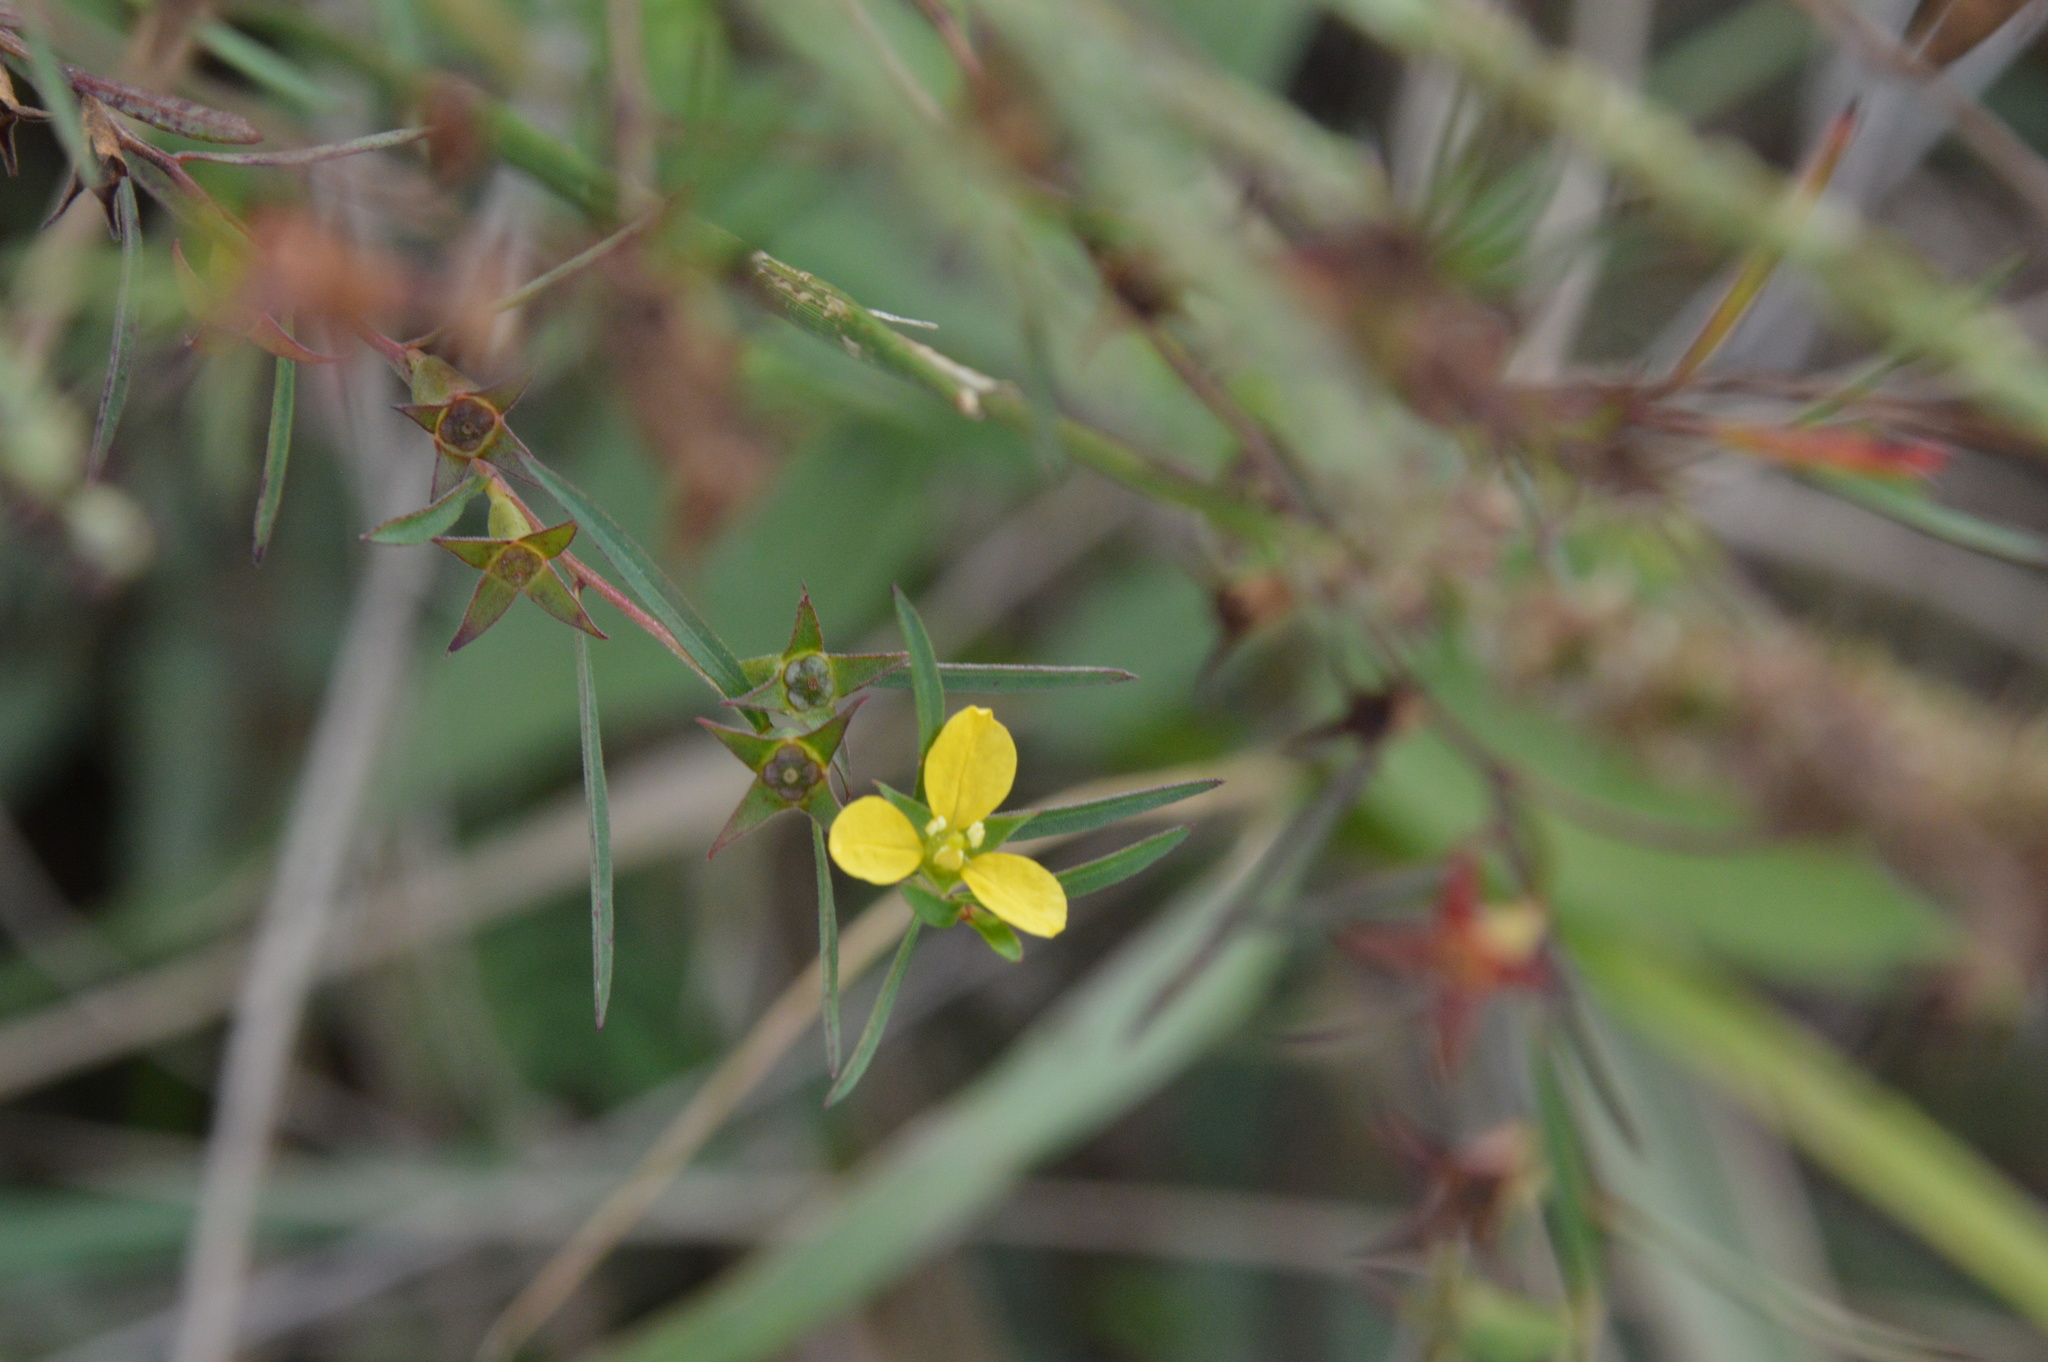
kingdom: Plantae
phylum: Tracheophyta
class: Magnoliopsida
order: Myrtales
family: Onagraceae
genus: Ludwigia
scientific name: Ludwigia linearis
